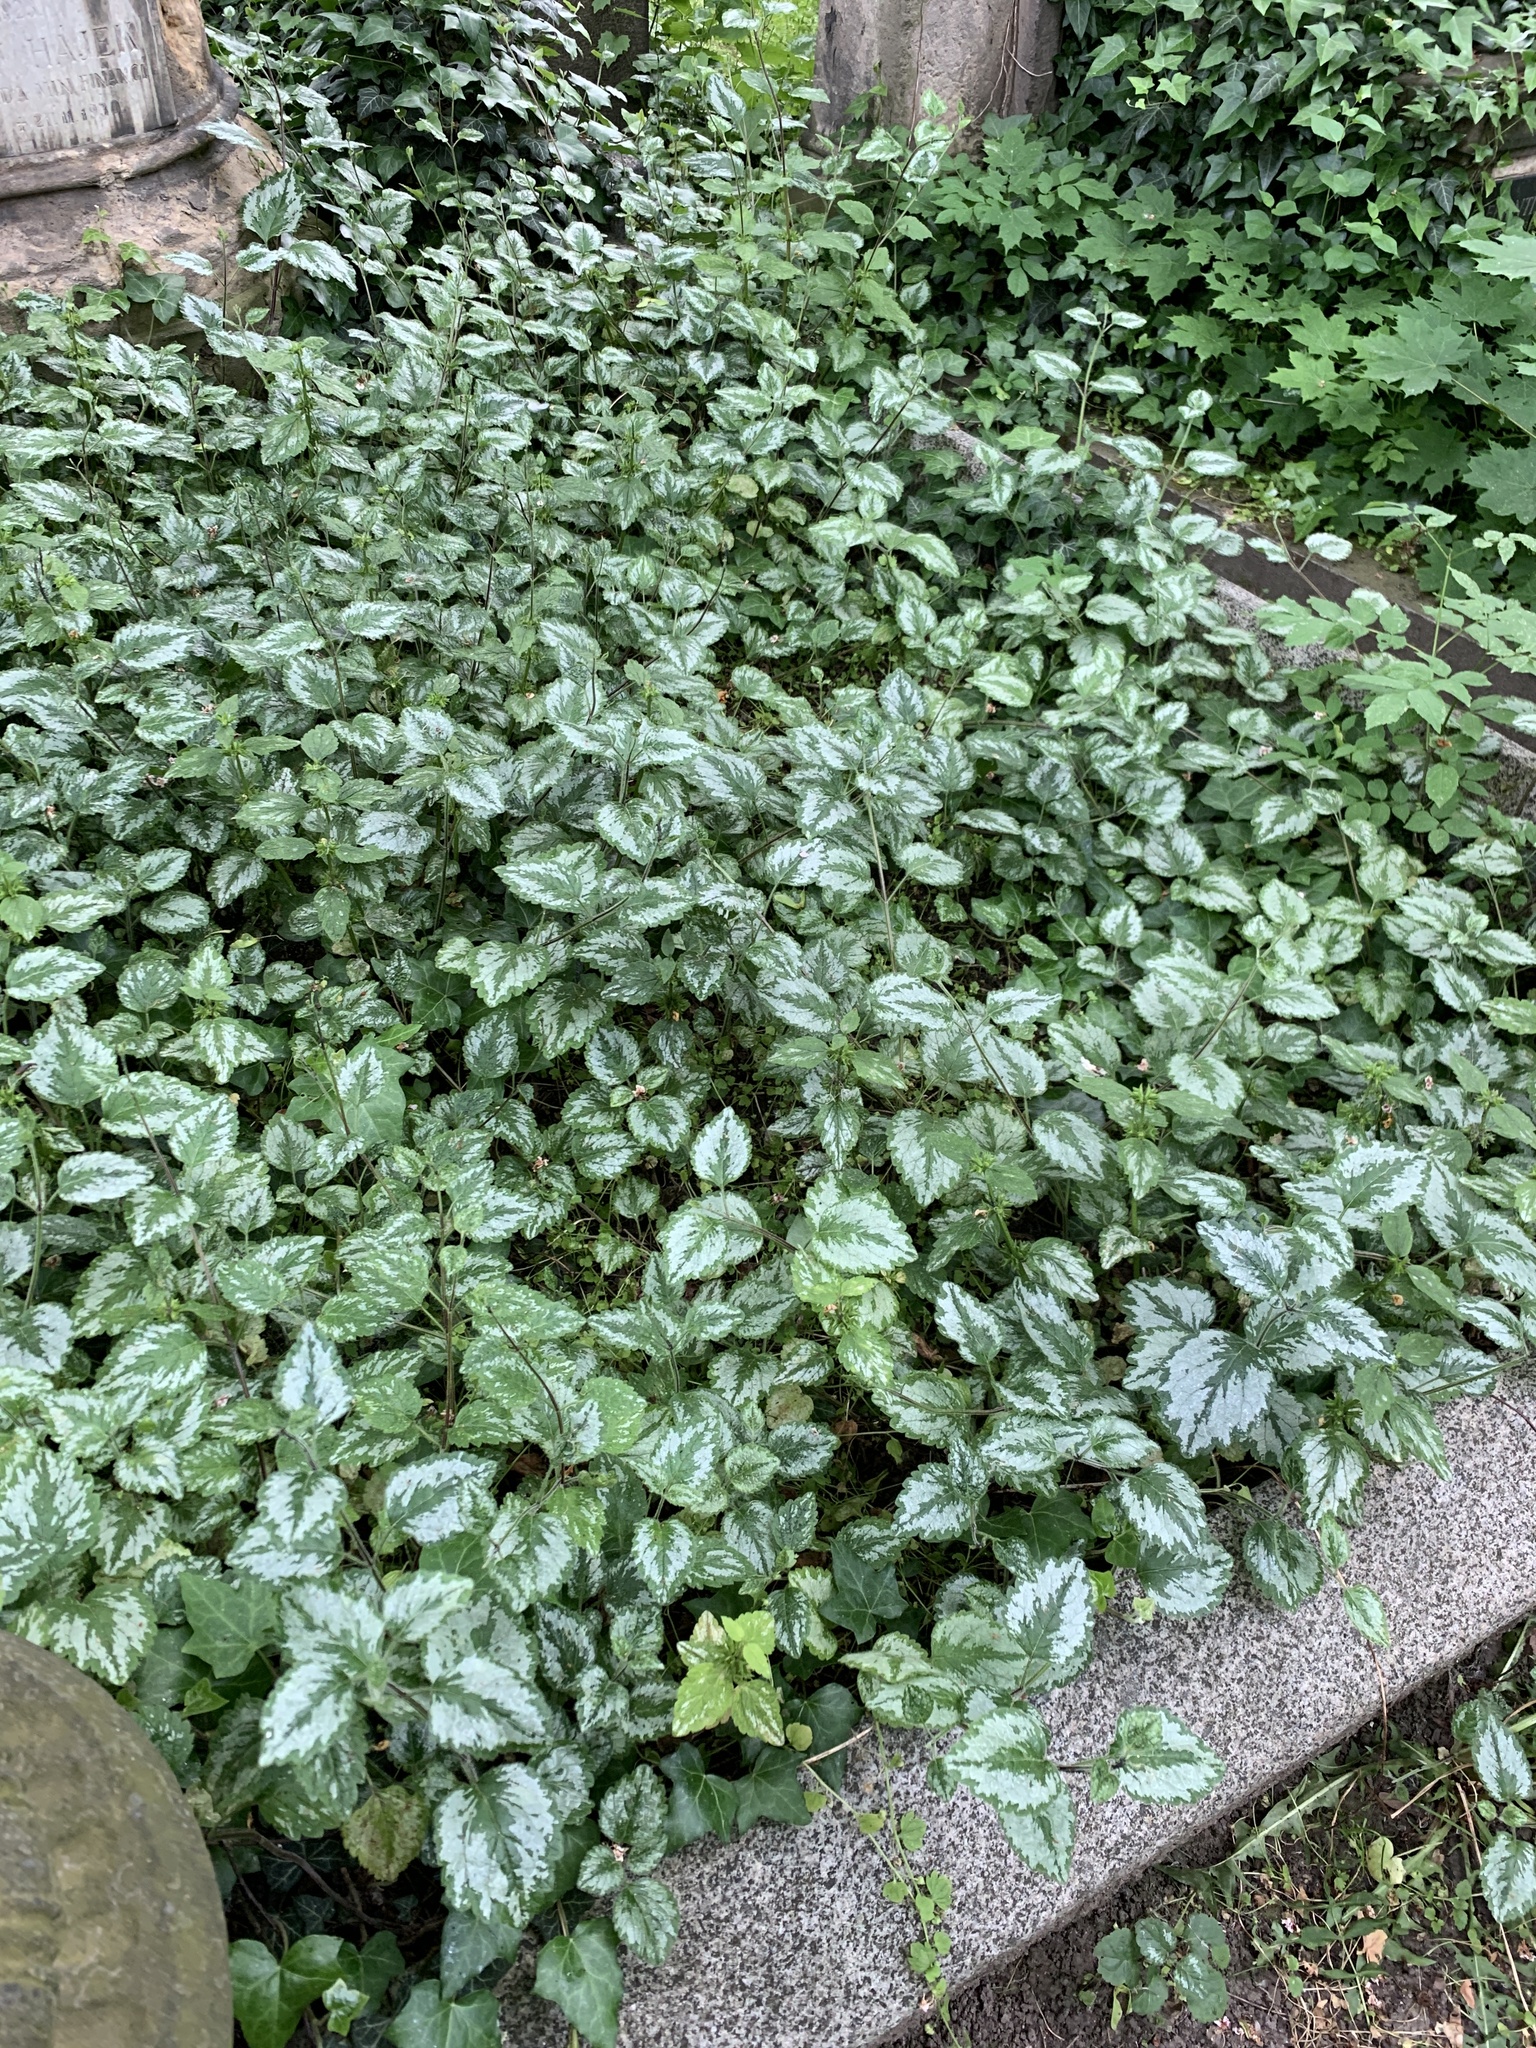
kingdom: Plantae
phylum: Tracheophyta
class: Magnoliopsida
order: Lamiales
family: Lamiaceae
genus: Lamium
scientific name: Lamium galeobdolon
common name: Yellow archangel
